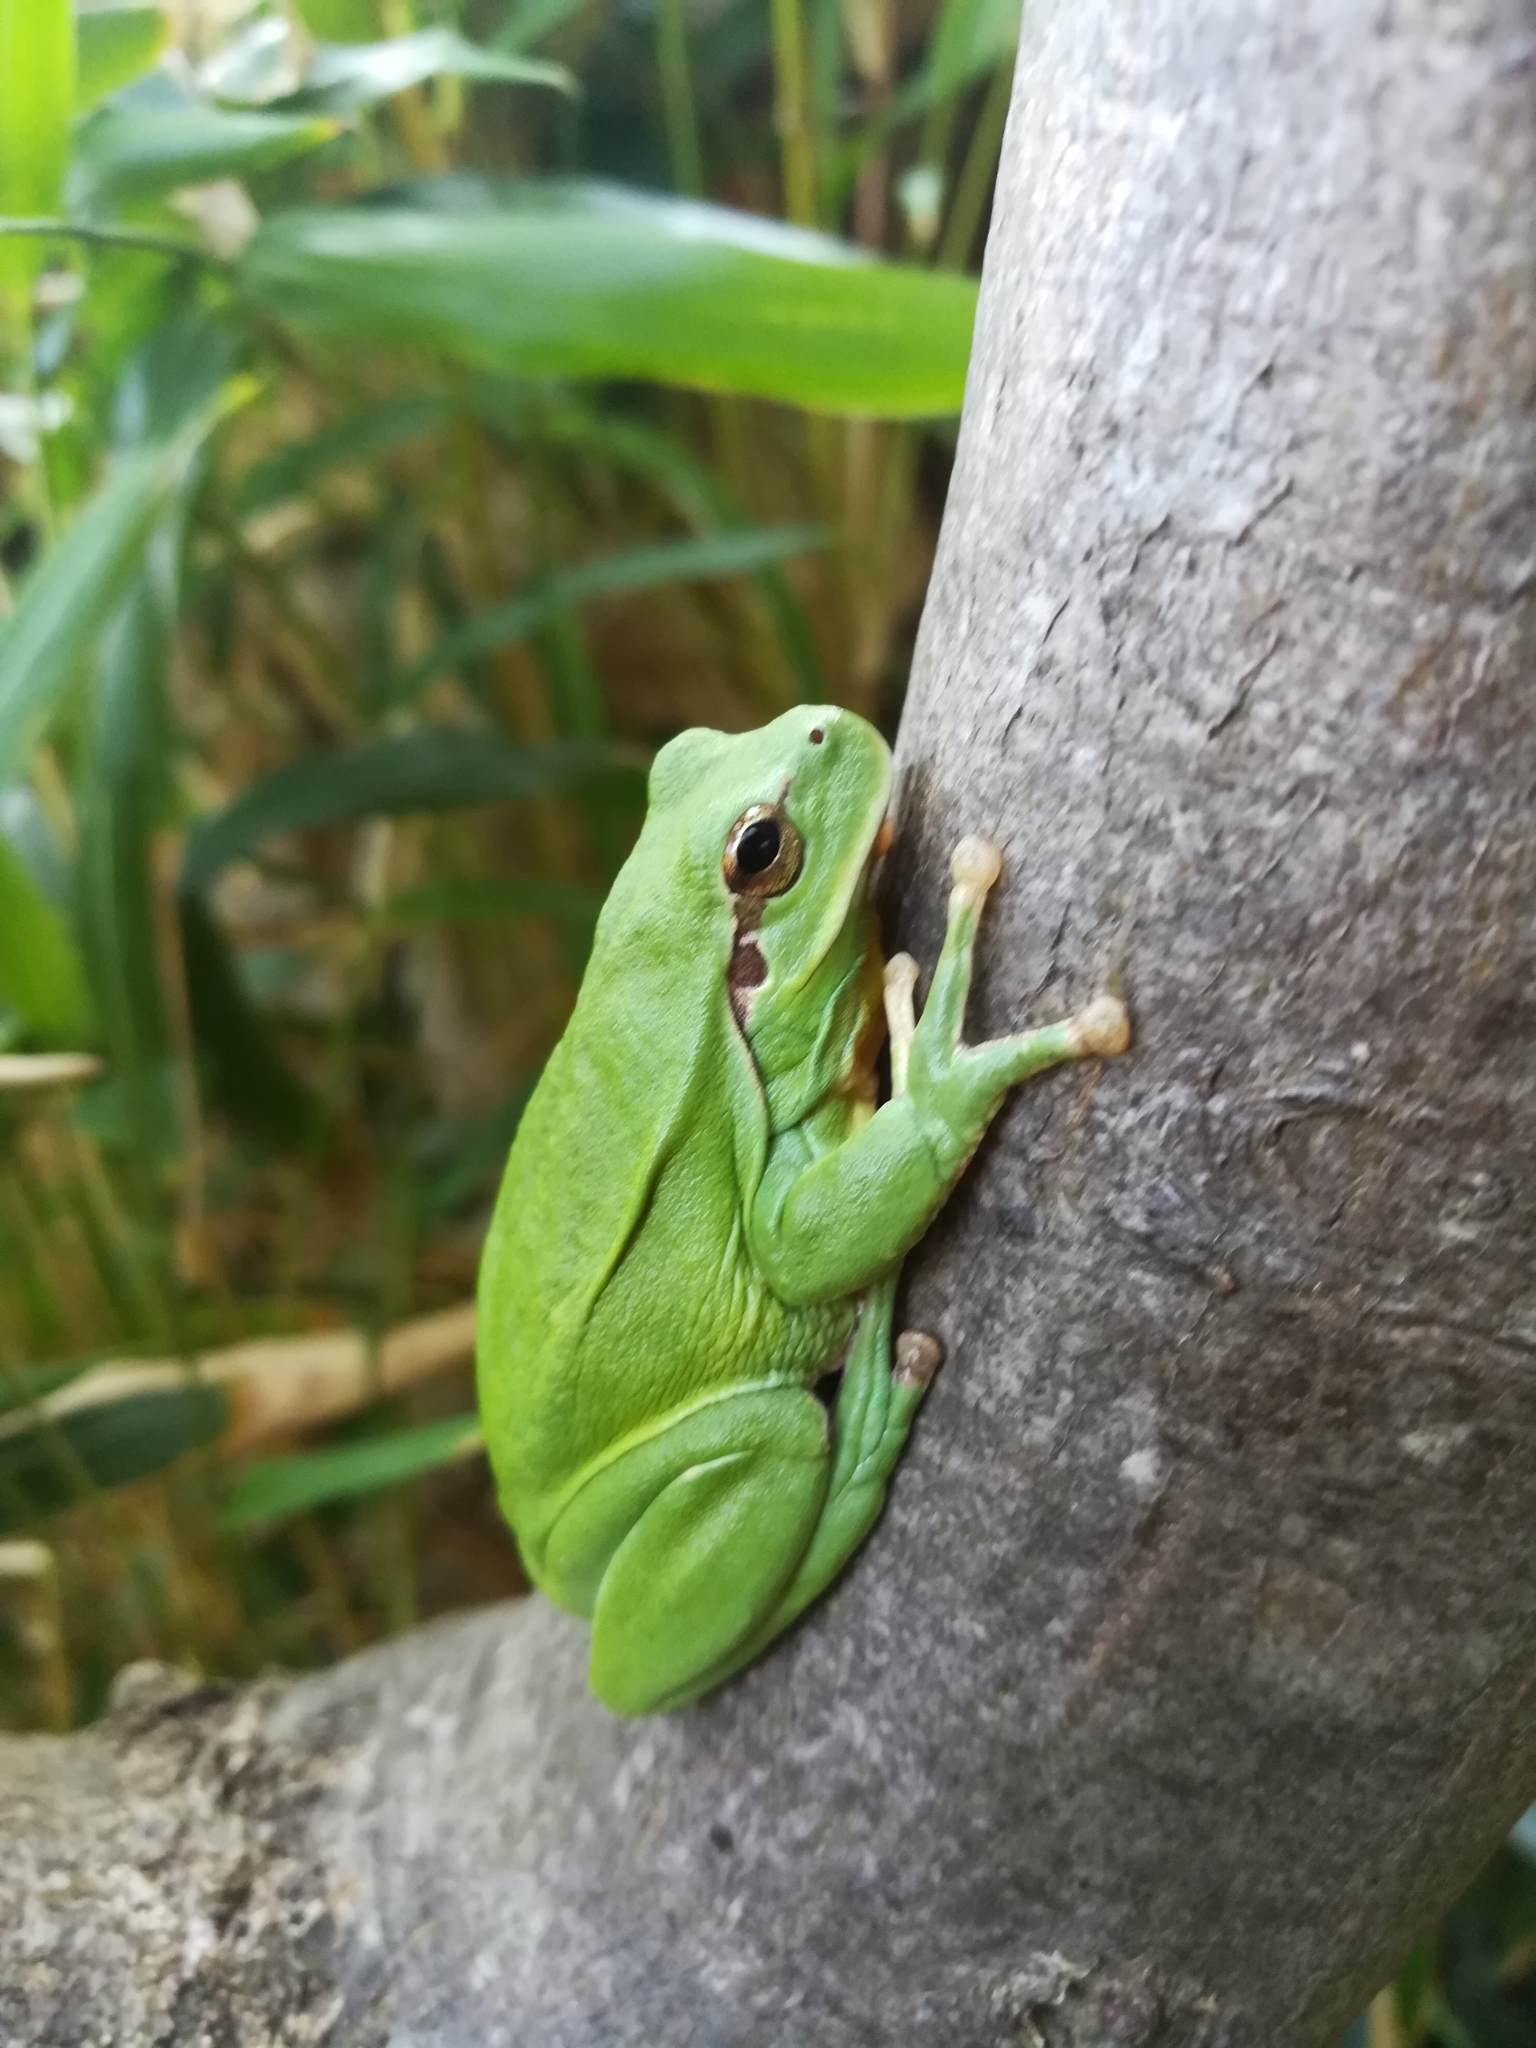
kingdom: Animalia
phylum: Chordata
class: Amphibia
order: Anura
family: Hylidae
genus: Hyla
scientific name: Hyla meridionalis
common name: Stripeless tree frog
